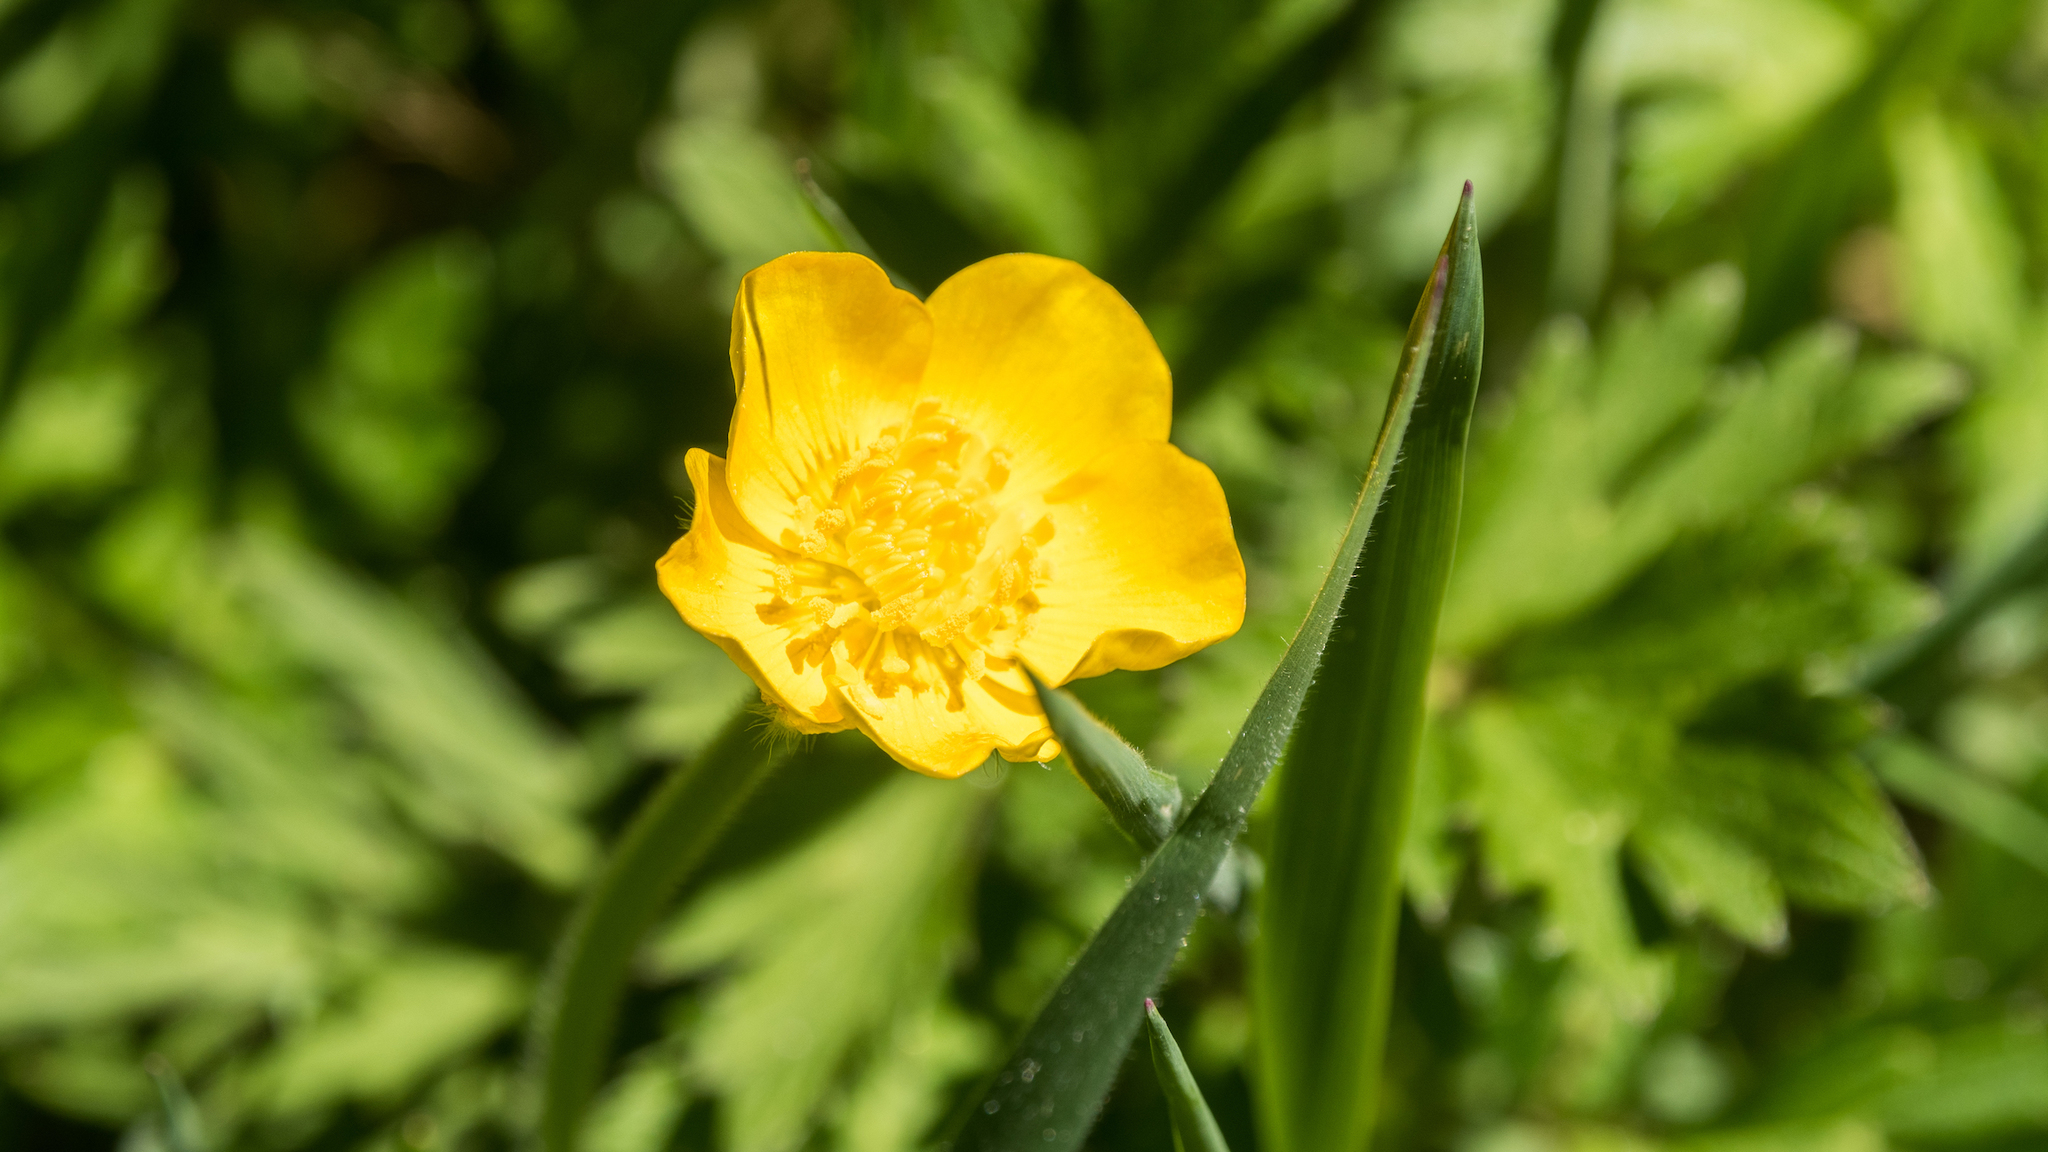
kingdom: Plantae
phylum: Tracheophyta
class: Magnoliopsida
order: Ranunculales
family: Ranunculaceae
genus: Ranunculus
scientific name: Ranunculus acris
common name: Meadow buttercup
